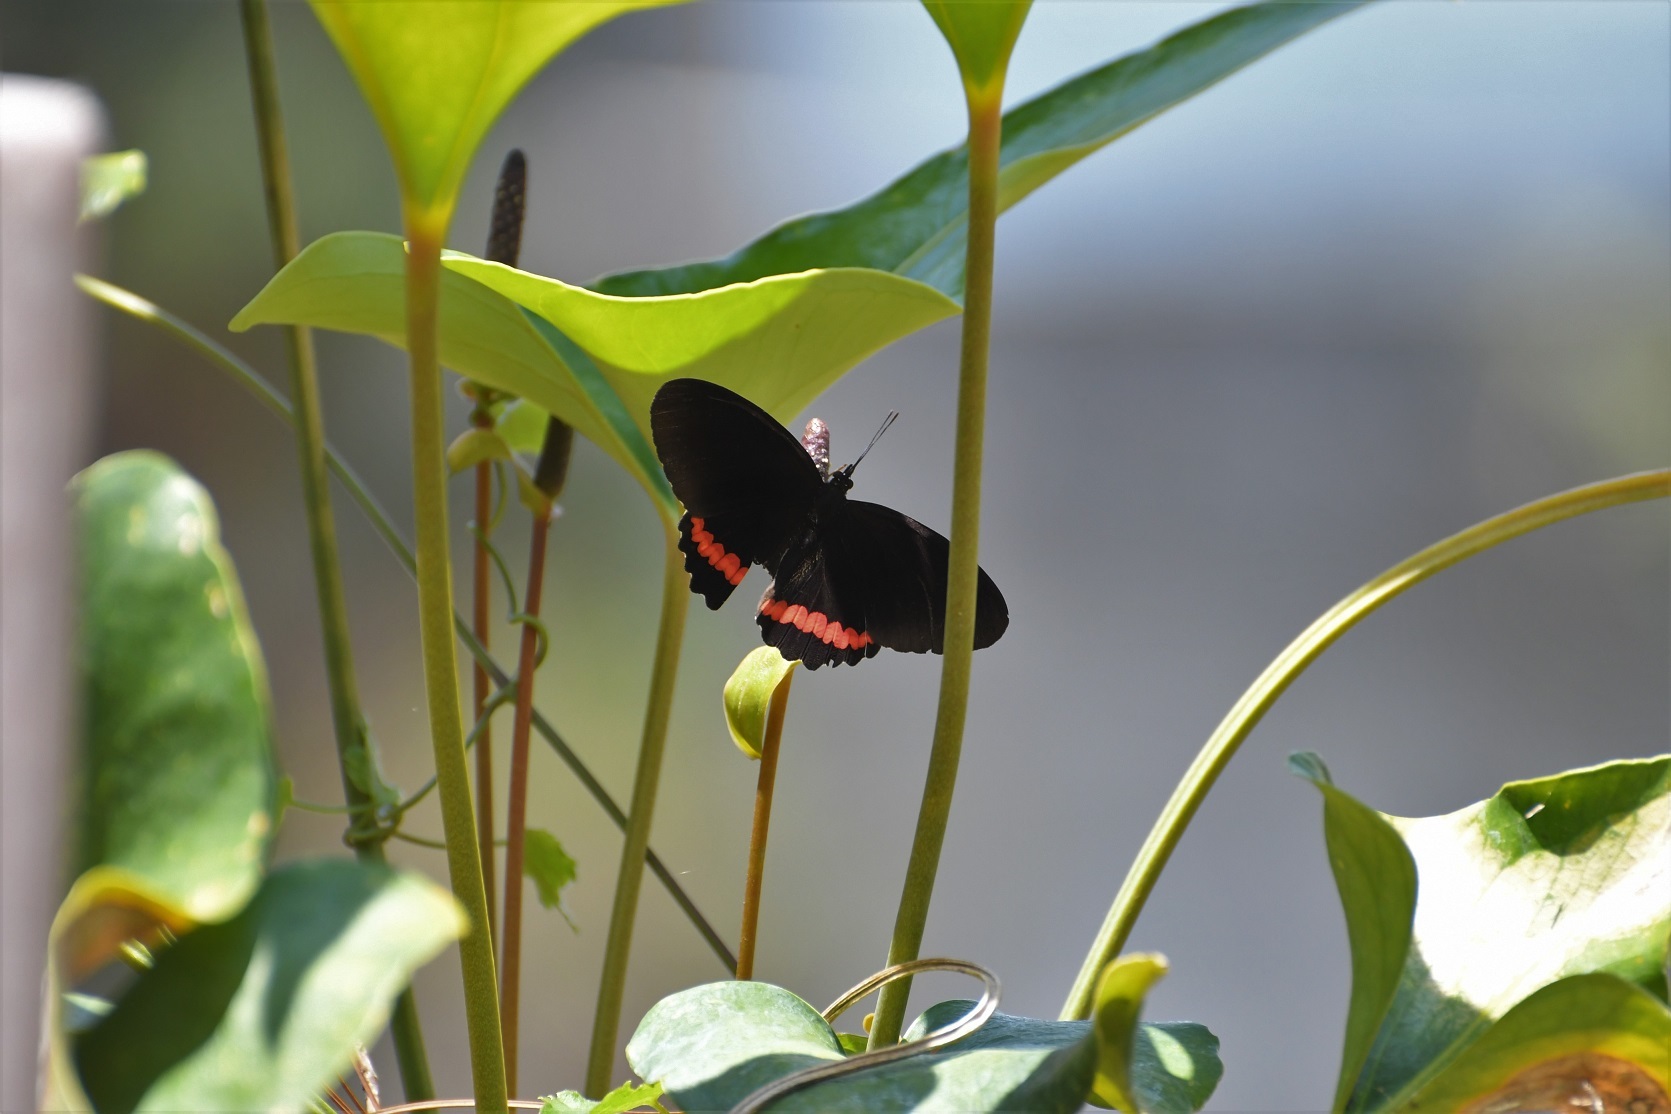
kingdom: Animalia
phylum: Arthropoda
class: Insecta
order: Lepidoptera
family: Nymphalidae
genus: Biblis
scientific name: Biblis aganisa
